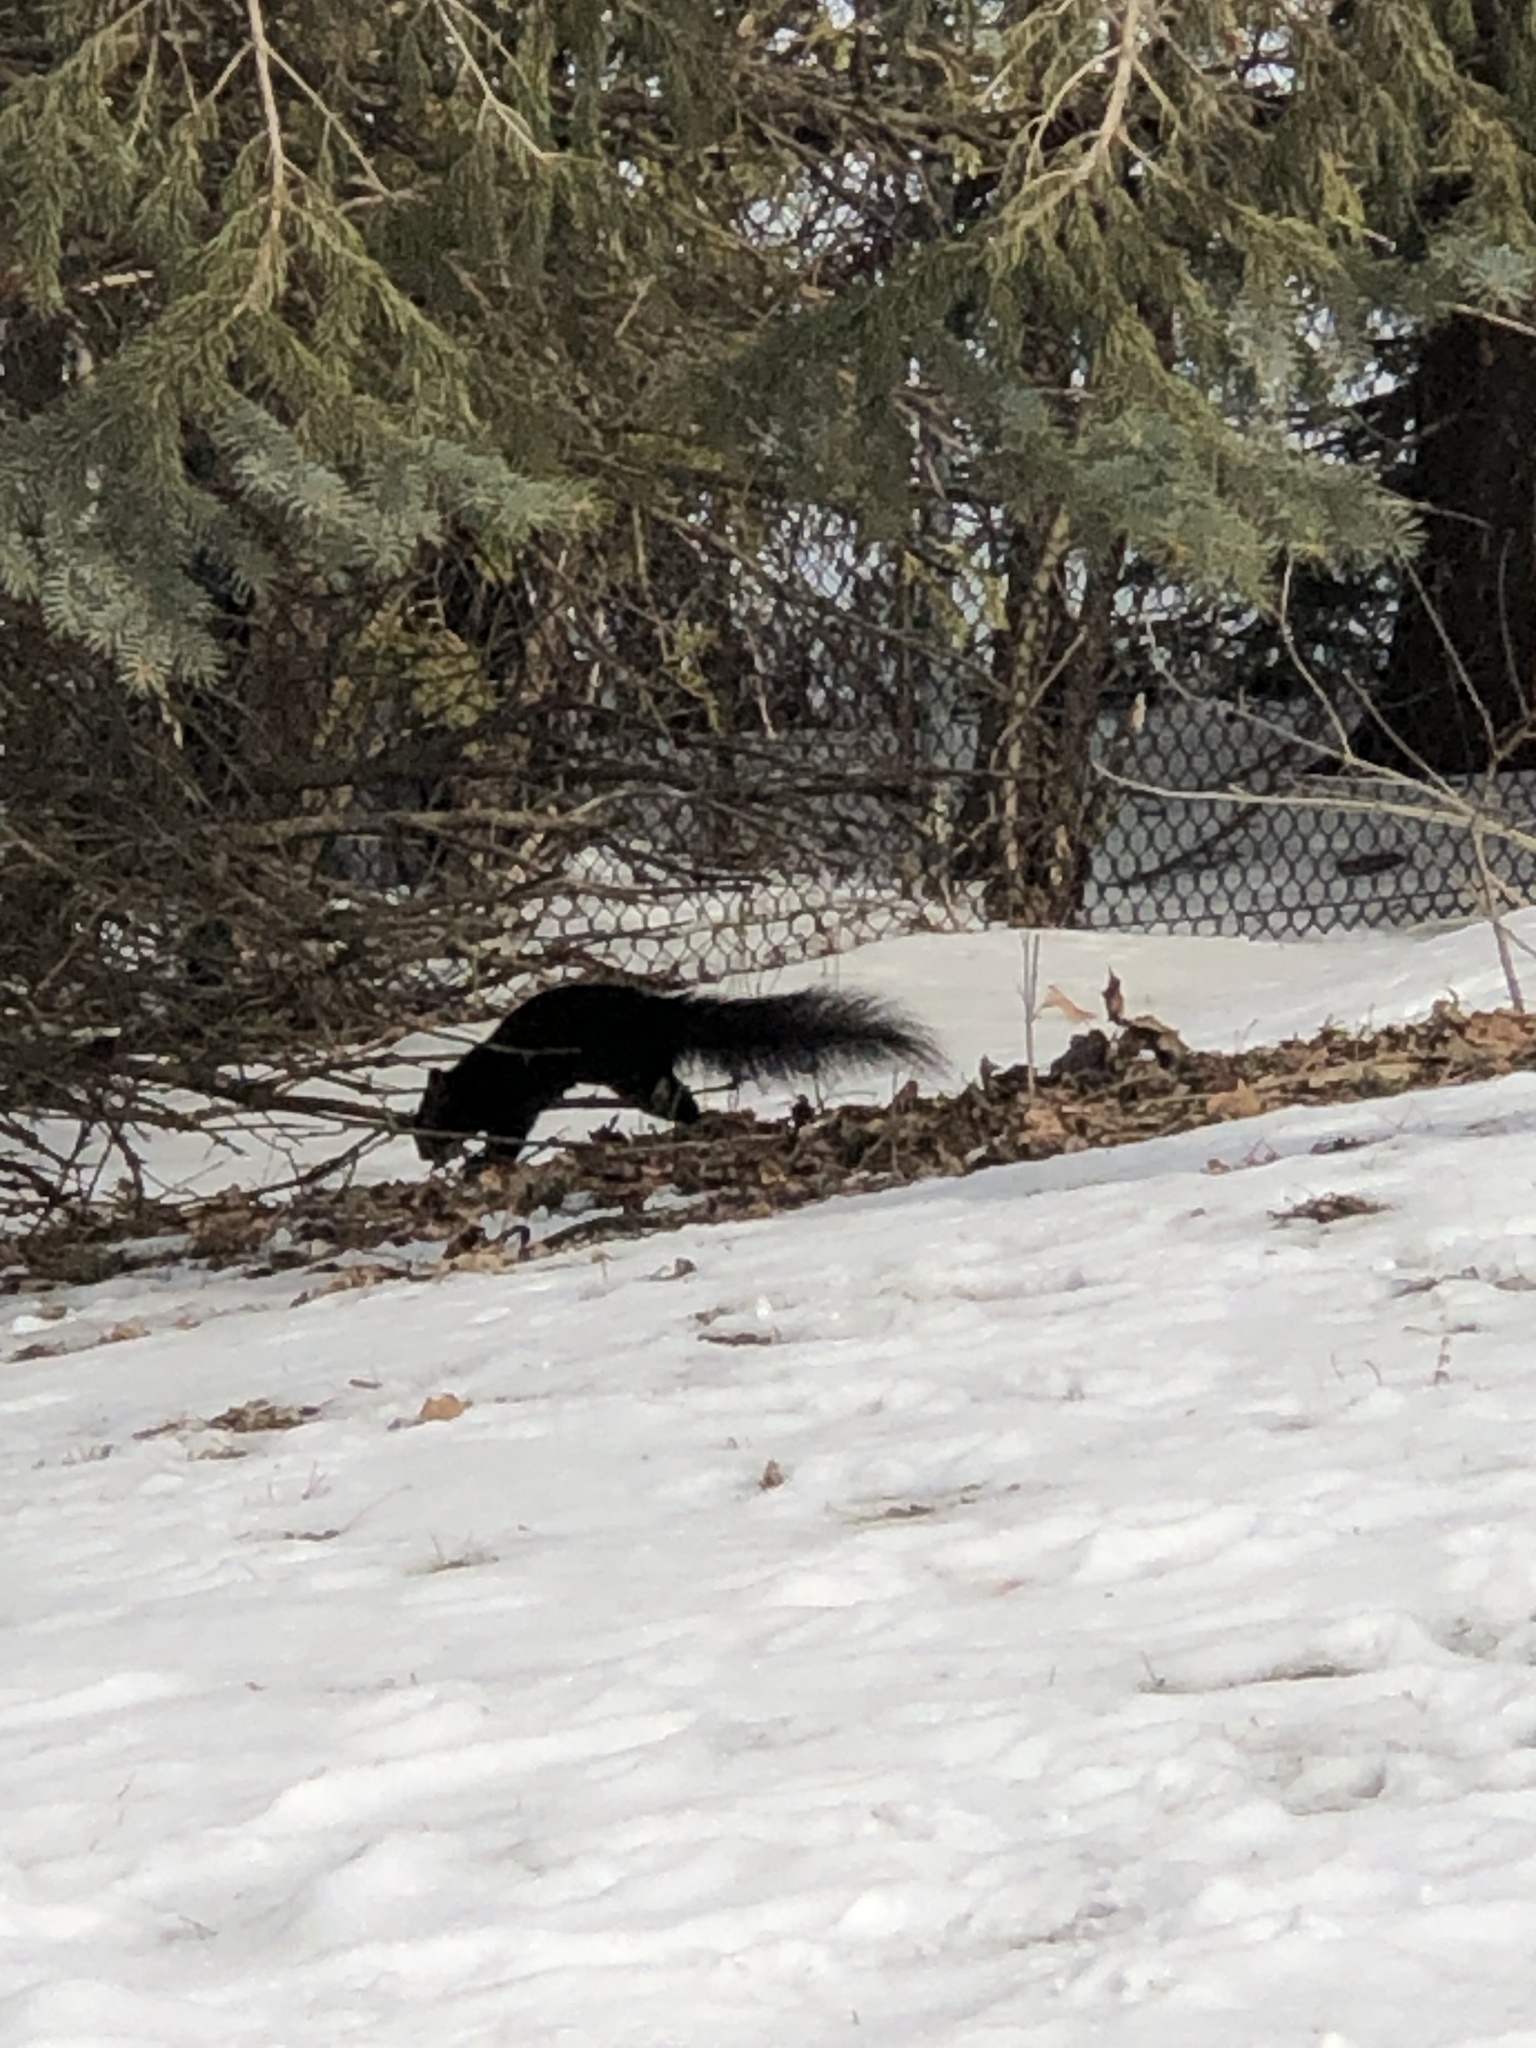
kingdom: Animalia
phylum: Chordata
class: Mammalia
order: Rodentia
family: Sciuridae
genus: Sciurus
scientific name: Sciurus carolinensis
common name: Eastern gray squirrel
